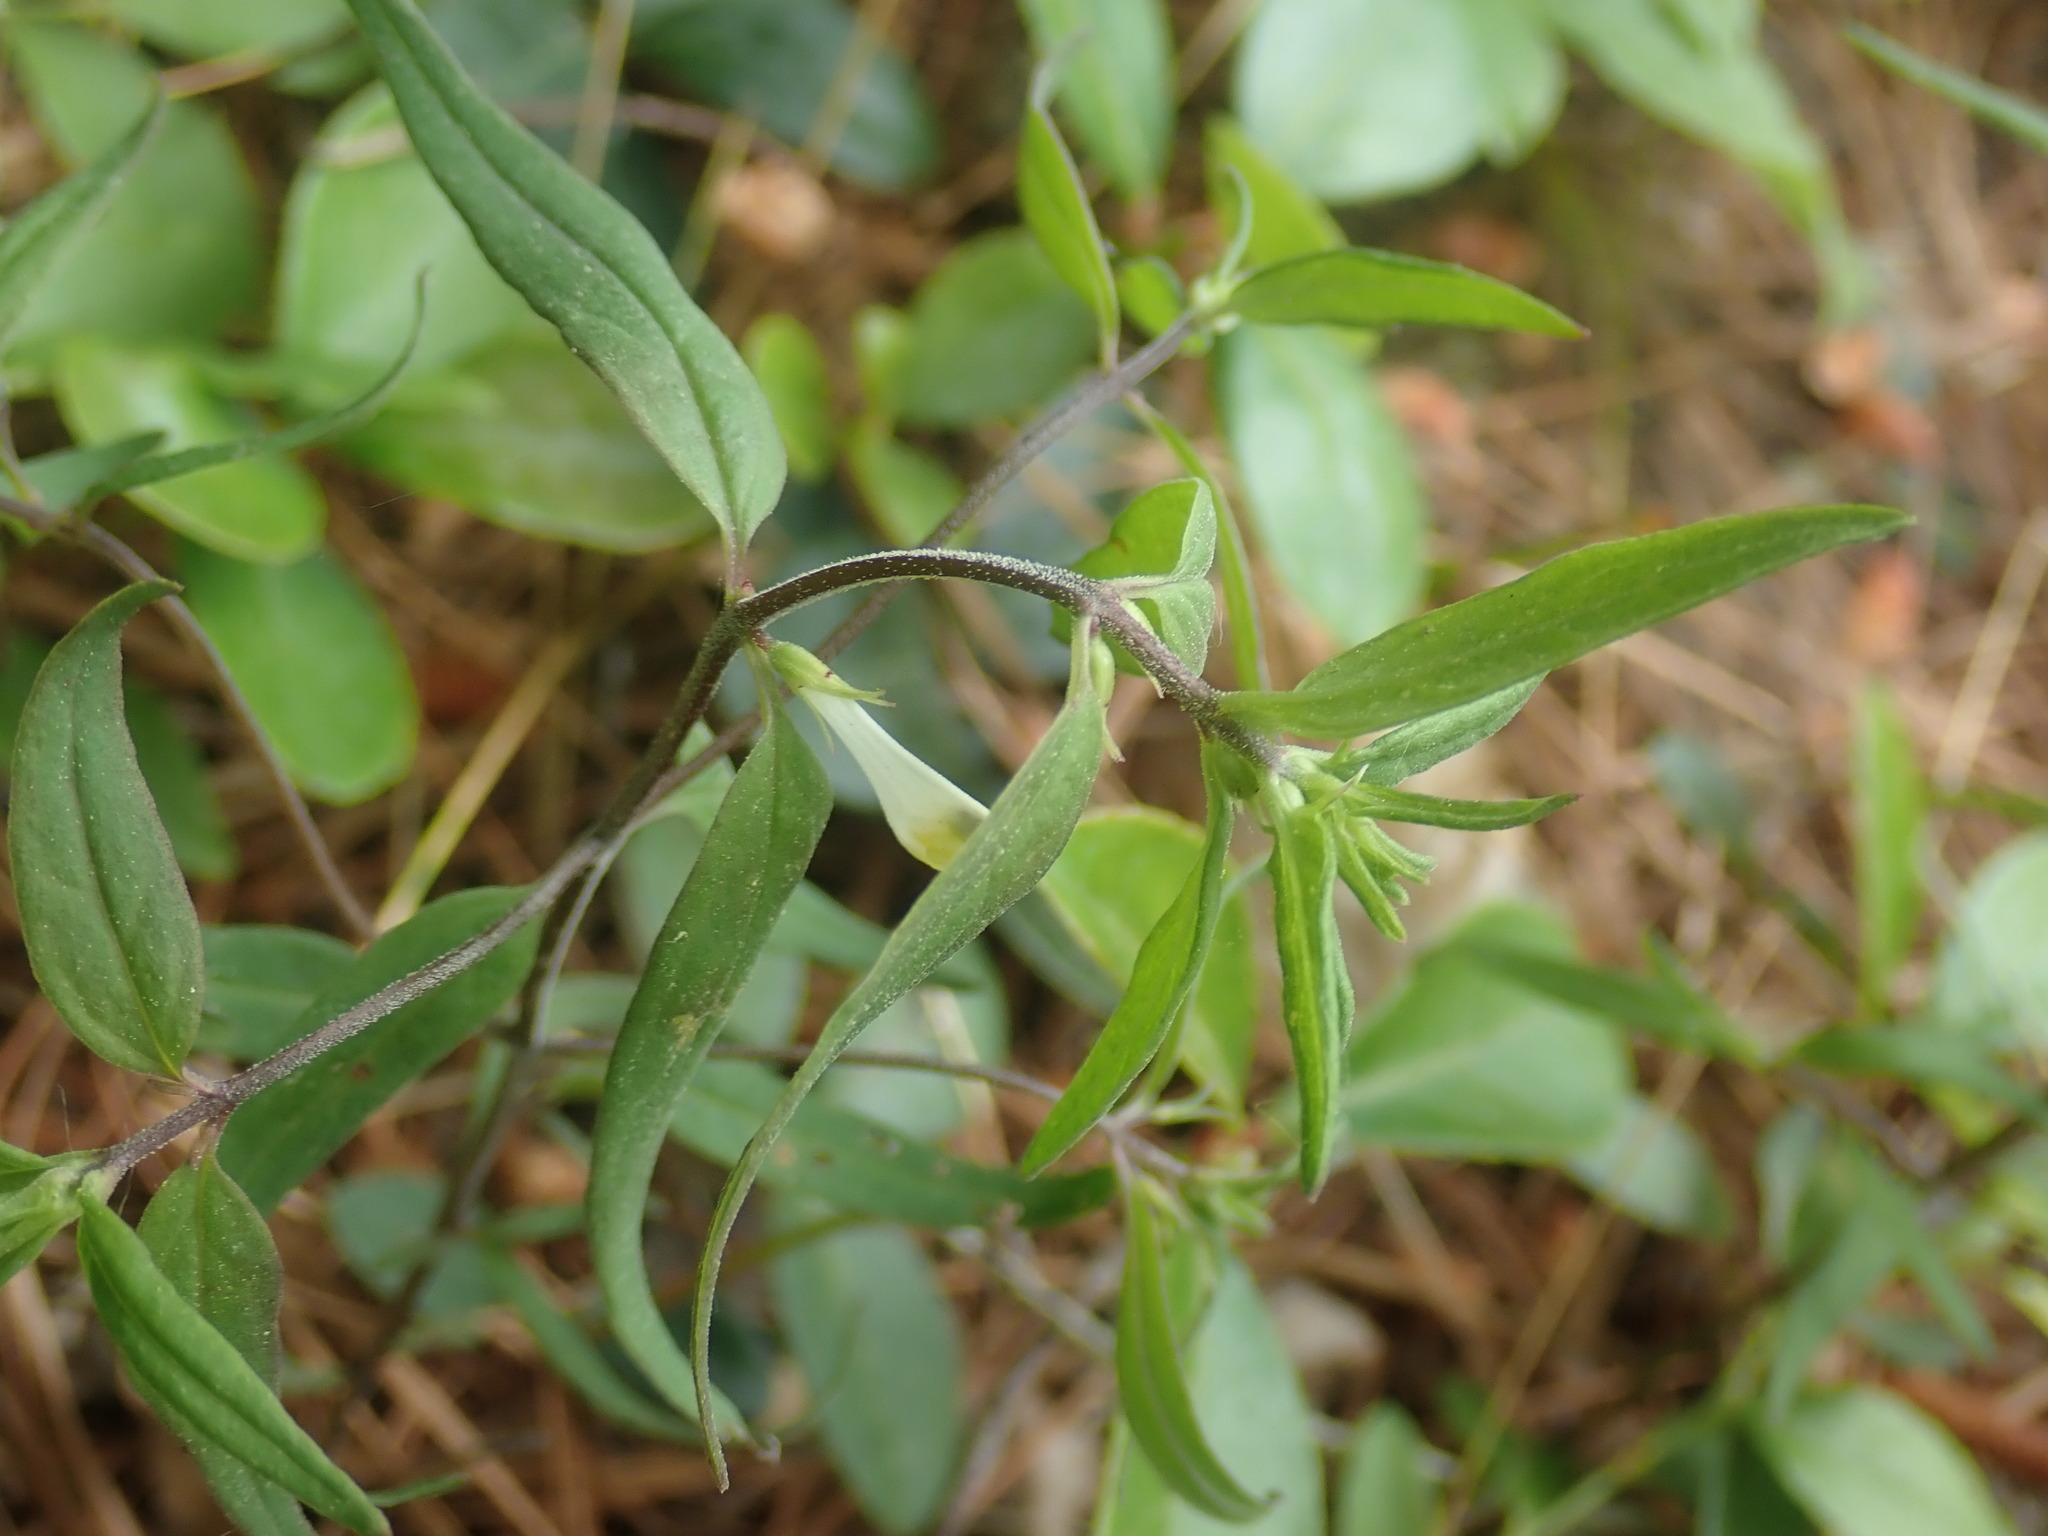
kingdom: Plantae
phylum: Tracheophyta
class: Magnoliopsida
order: Lamiales
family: Orobanchaceae
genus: Melampyrum
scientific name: Melampyrum lineare
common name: American cow-wheat
